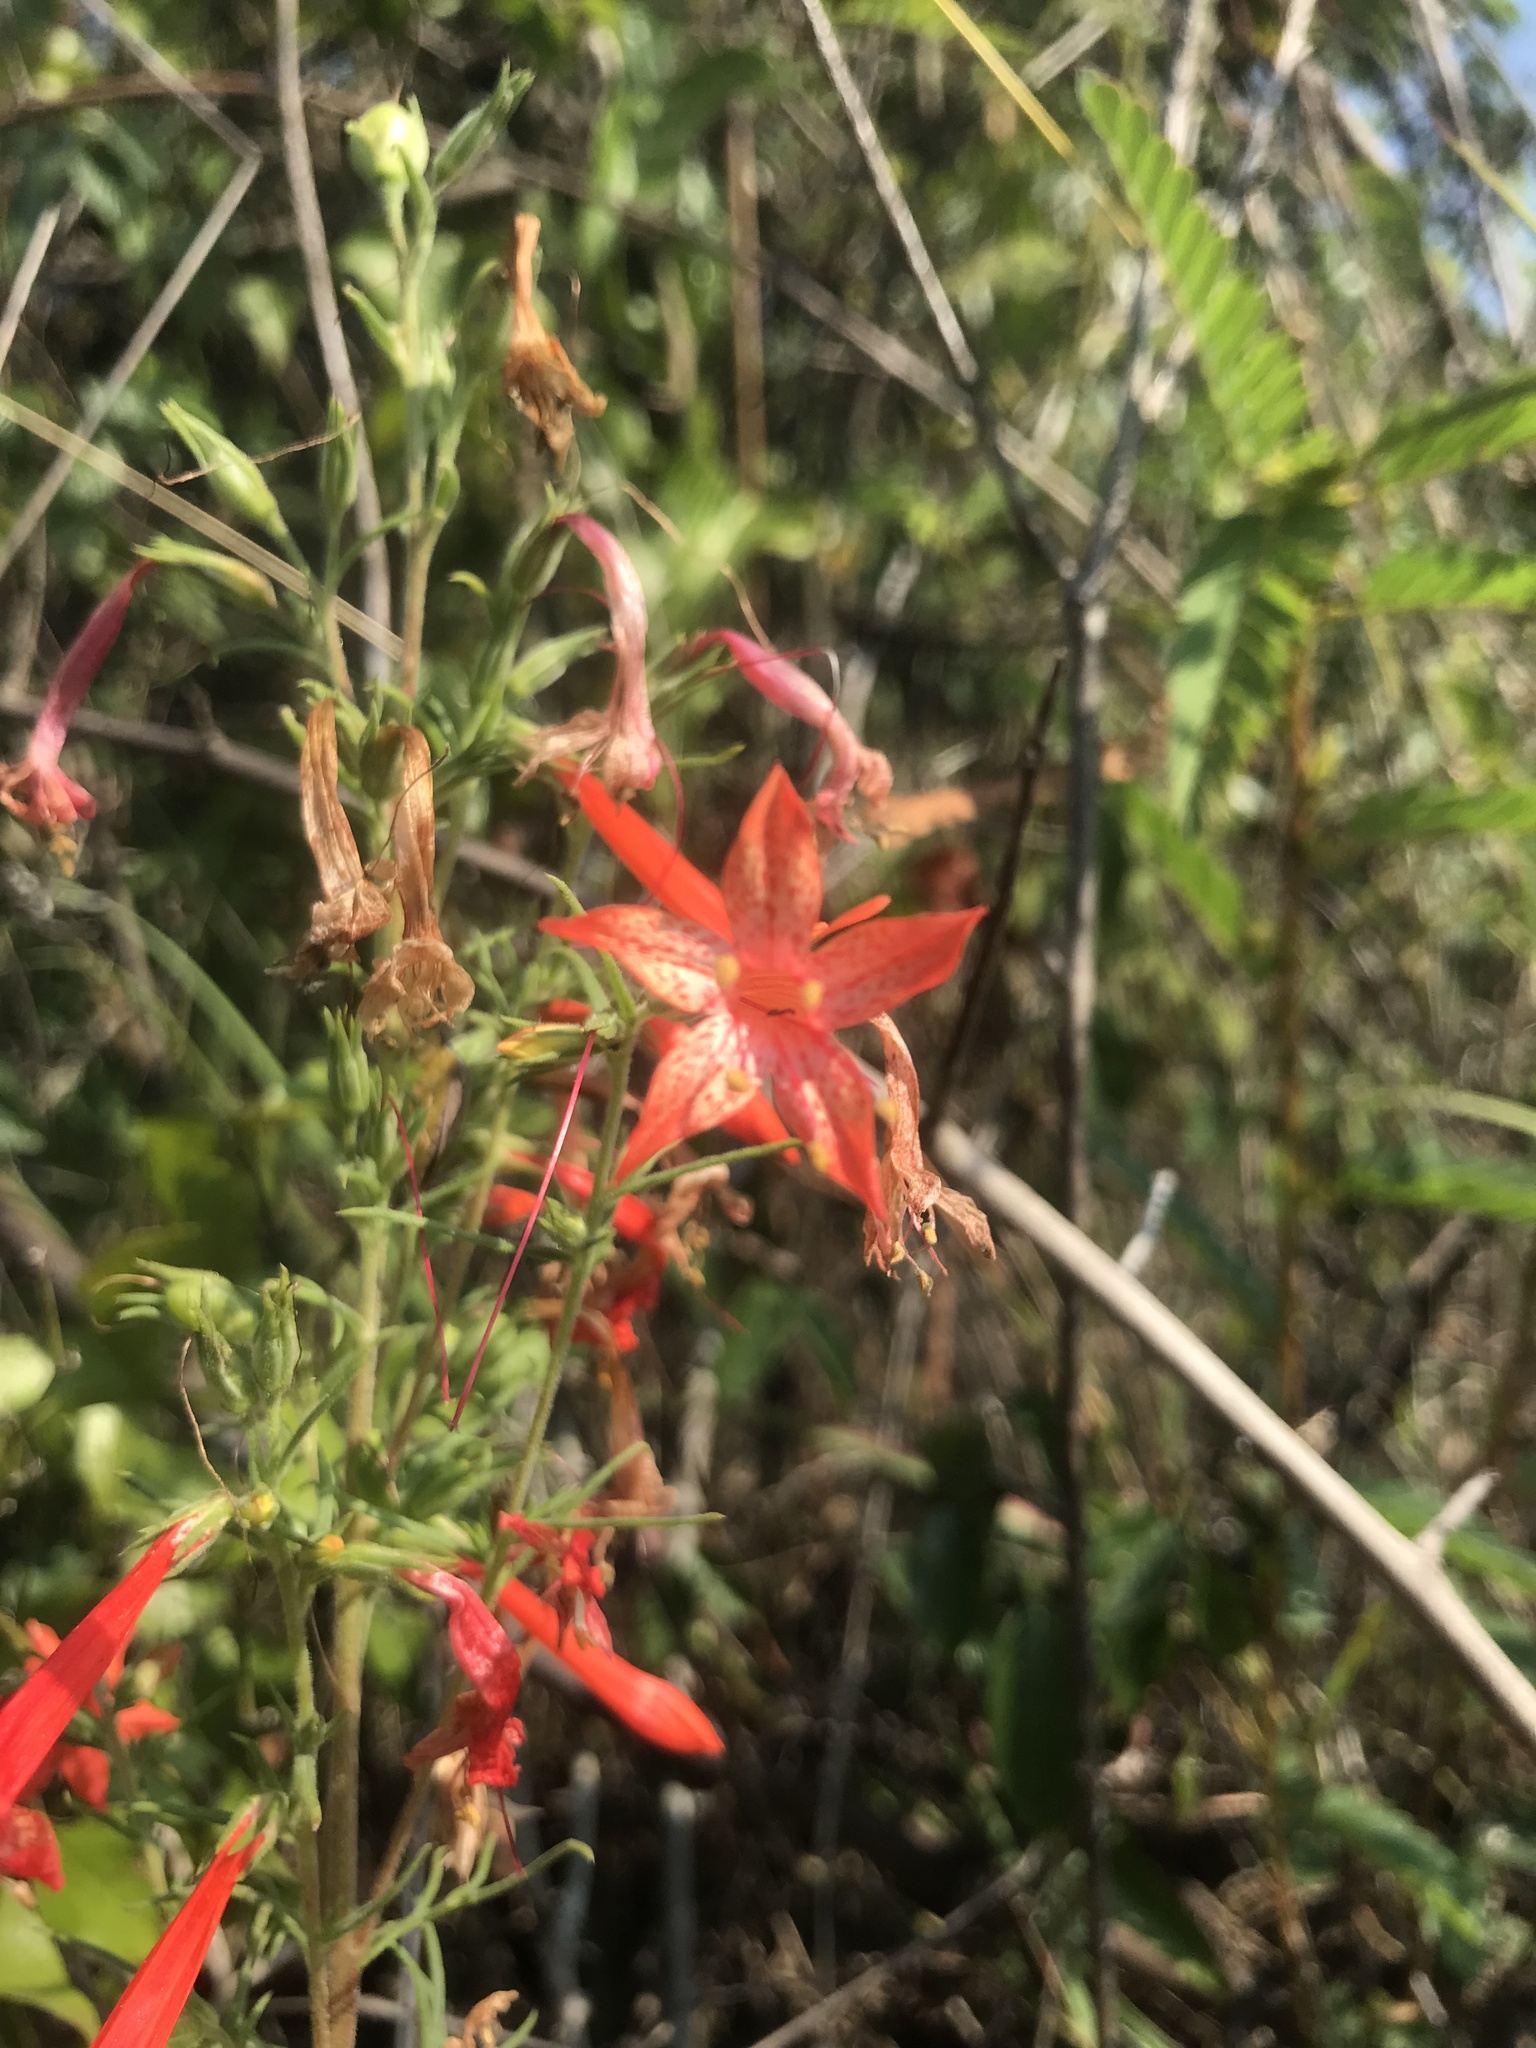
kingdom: Plantae
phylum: Tracheophyta
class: Magnoliopsida
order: Ericales
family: Polemoniaceae
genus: Ipomopsis
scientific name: Ipomopsis rubra
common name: Skyrocket
